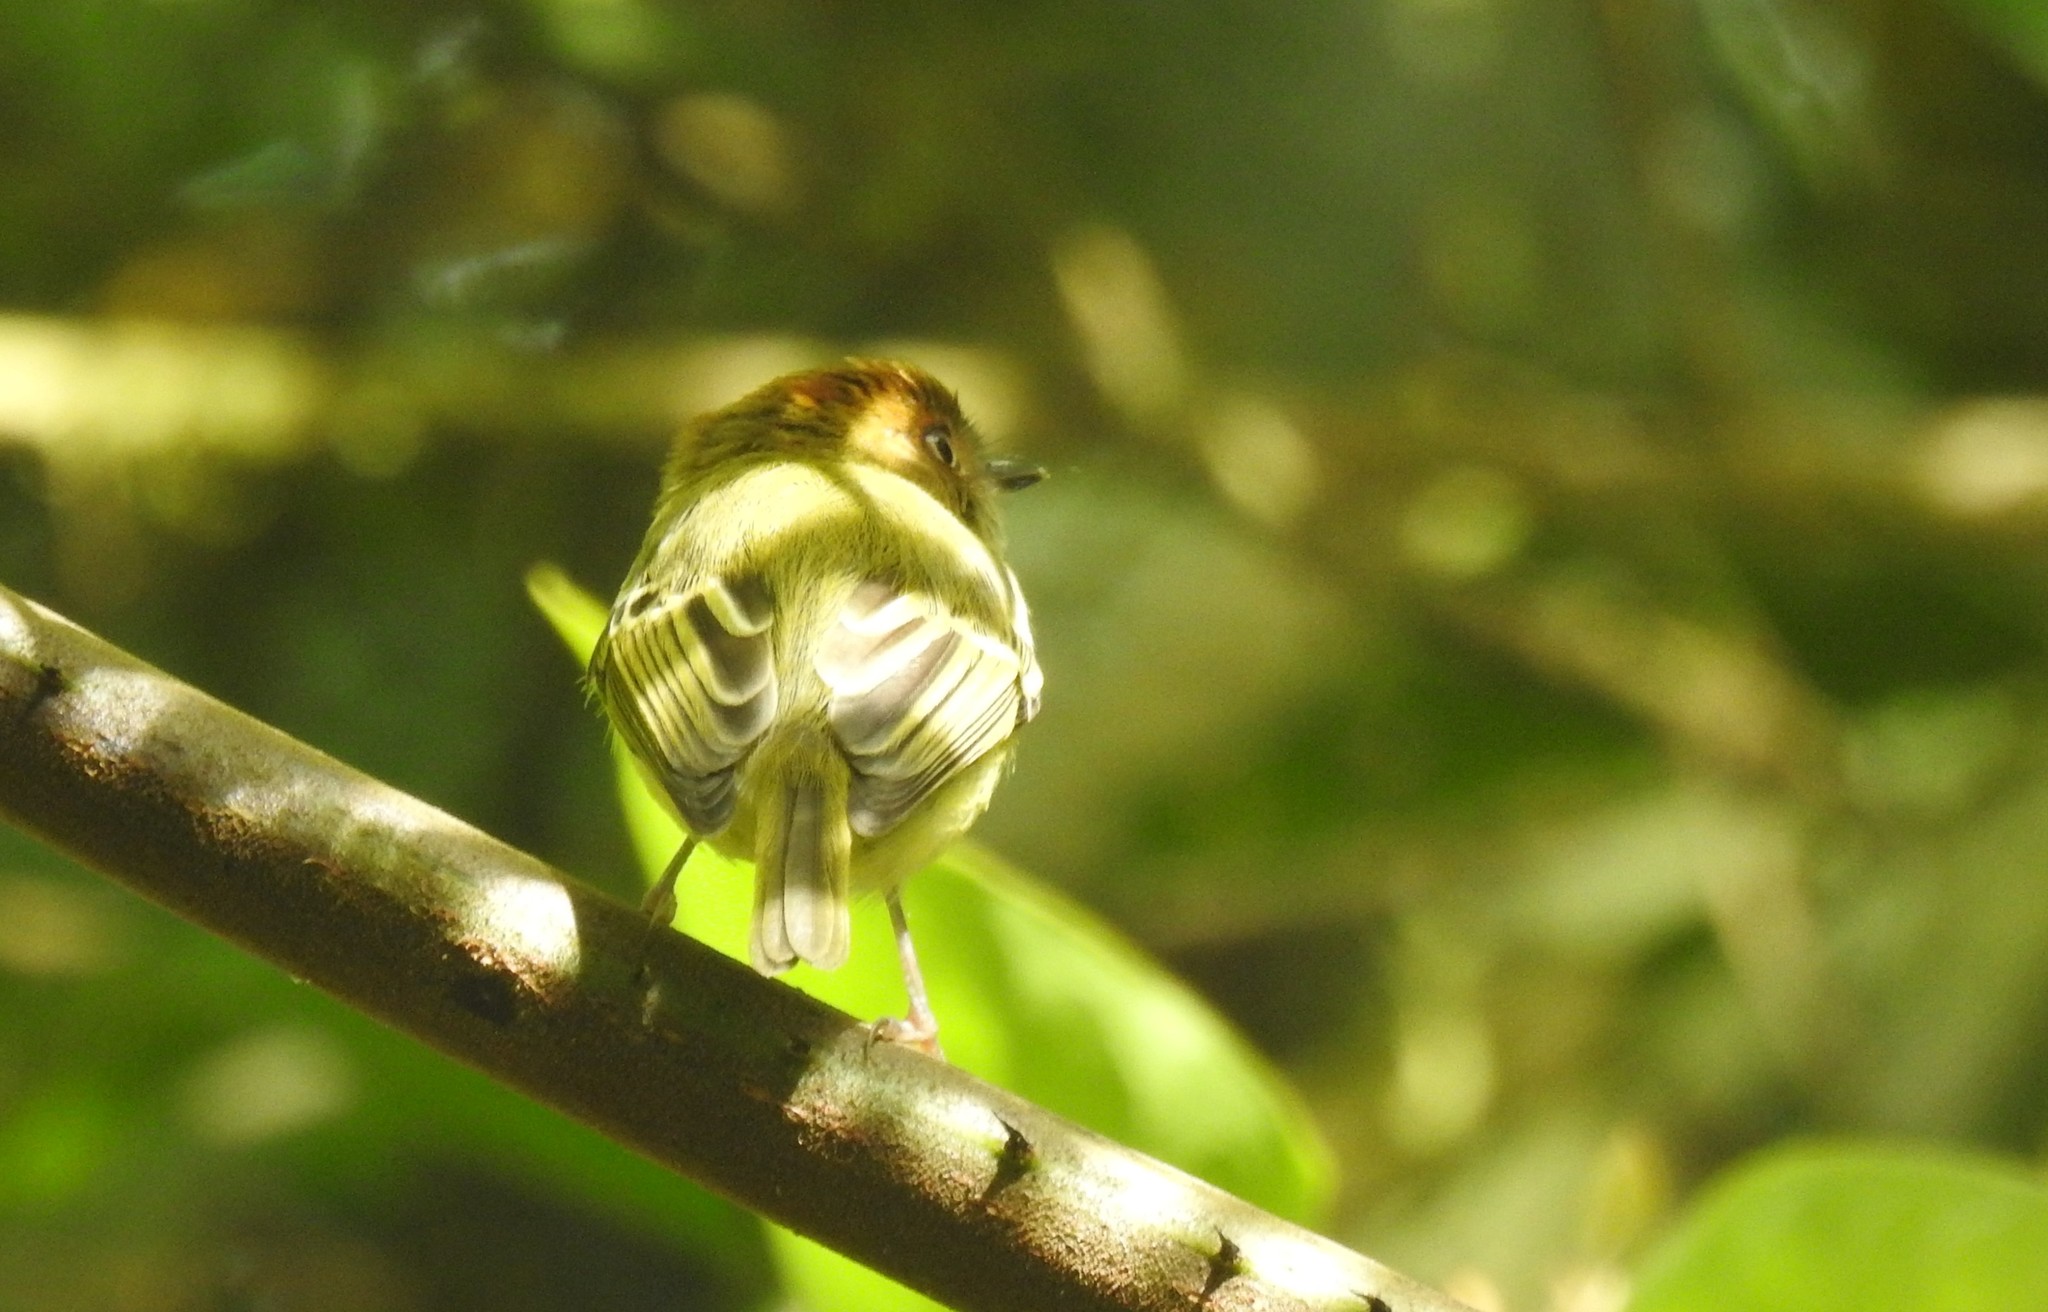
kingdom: Animalia
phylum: Chordata
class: Aves
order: Passeriformes
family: Tyrannidae
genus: Lophotriccus
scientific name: Lophotriccus pileatus
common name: Scale-crested pygmy-tyrant
